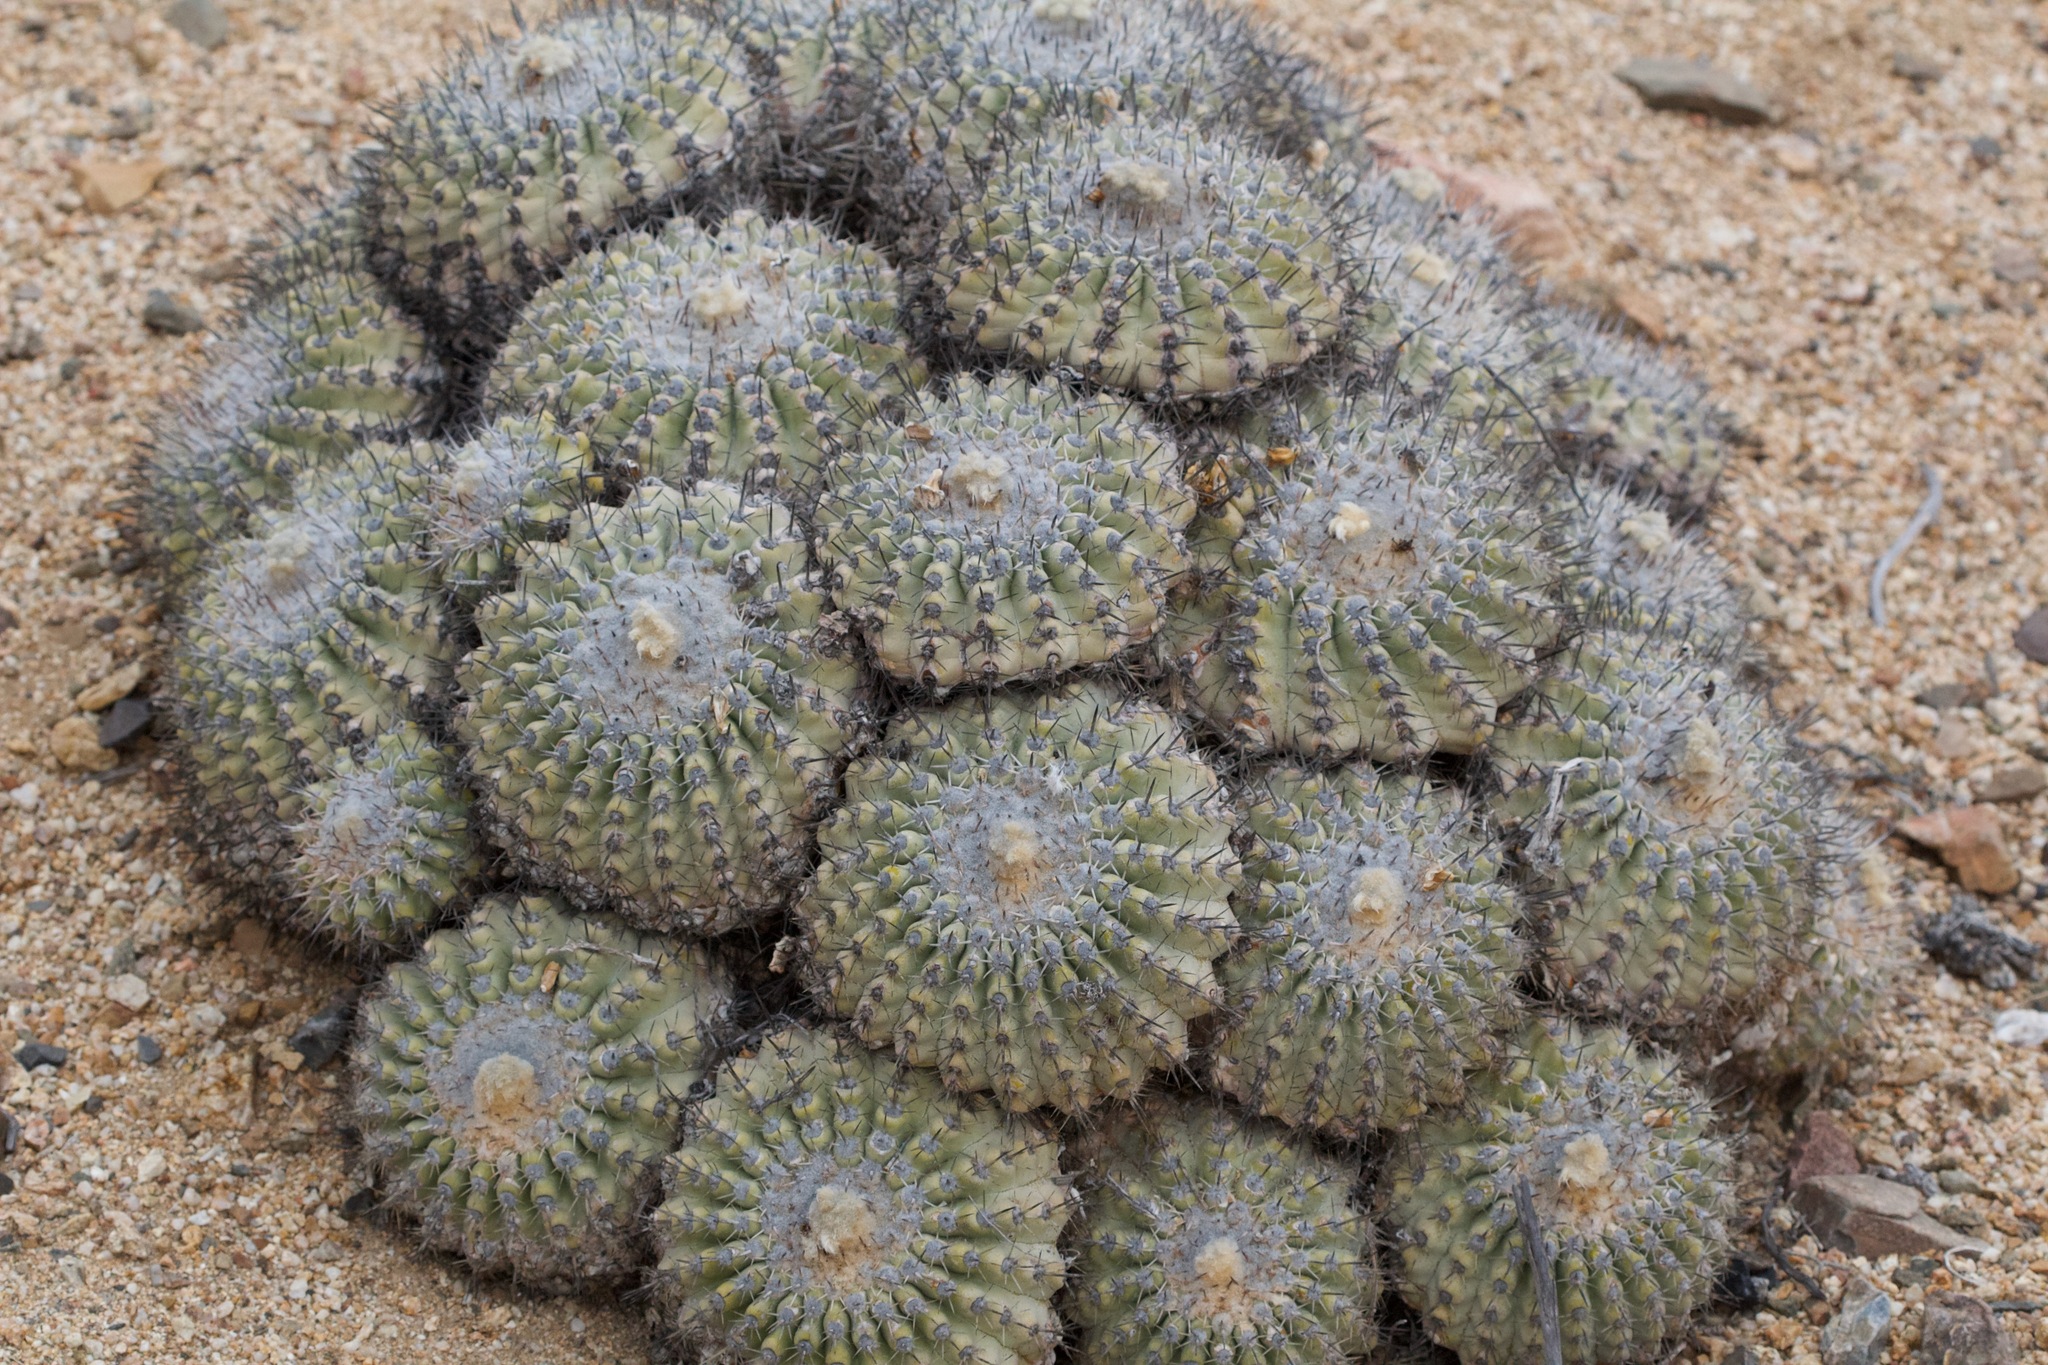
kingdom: Plantae
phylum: Tracheophyta
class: Magnoliopsida
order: Caryophyllales
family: Cactaceae
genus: Copiapoa
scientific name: Copiapoa cinerascens
